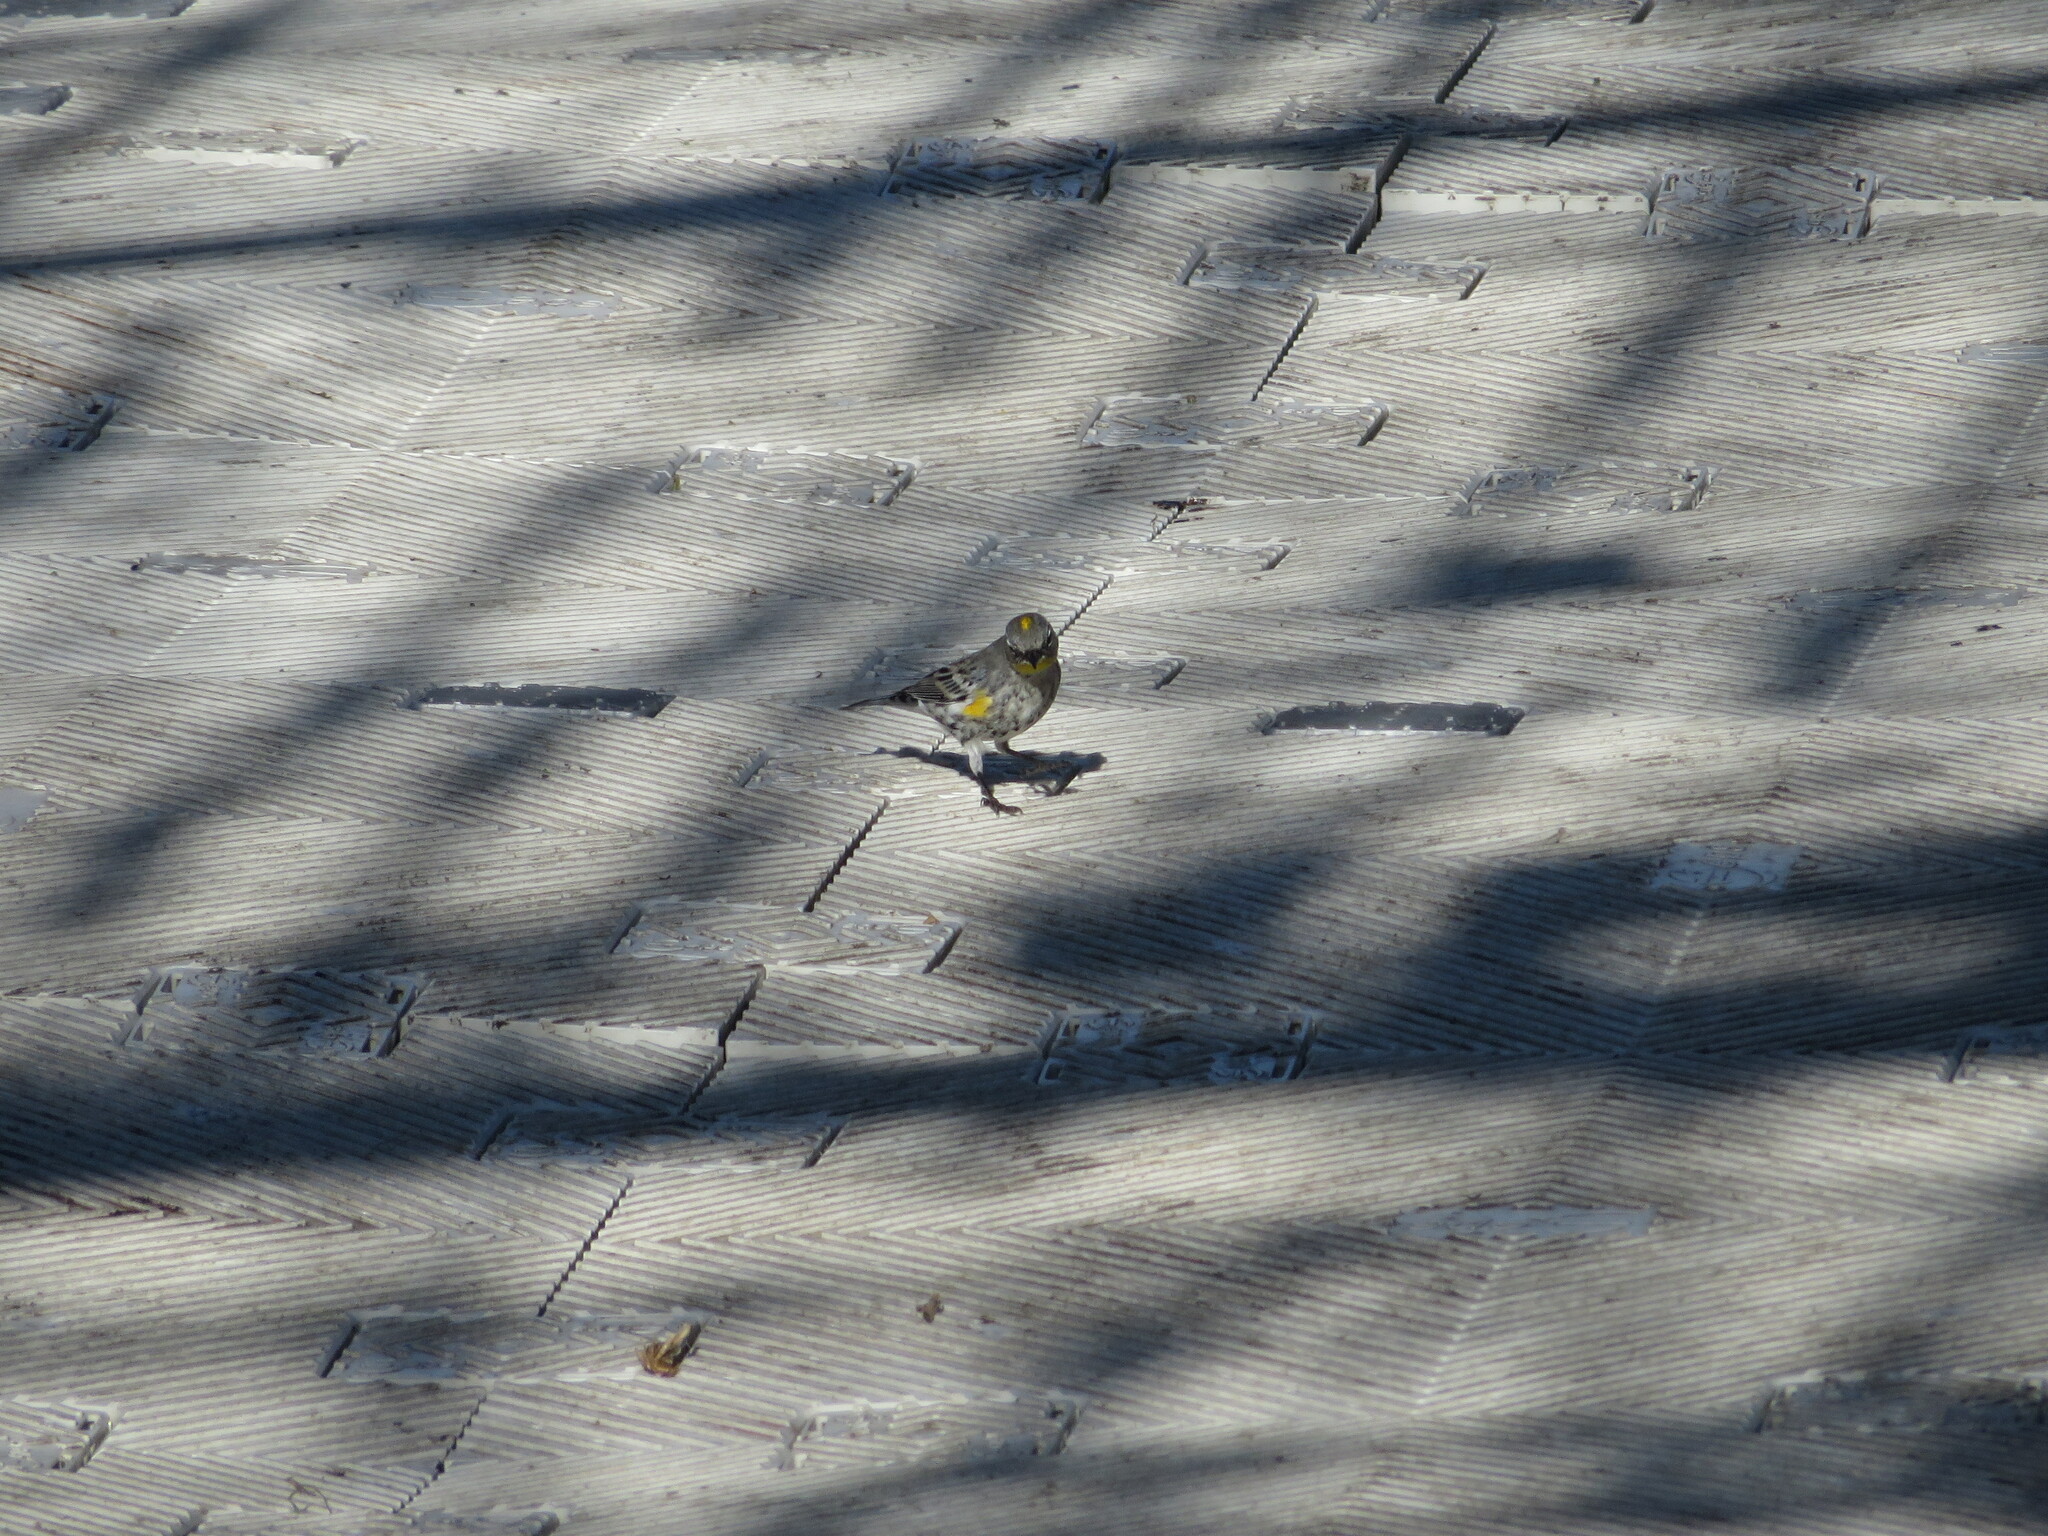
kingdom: Animalia
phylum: Chordata
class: Aves
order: Passeriformes
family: Parulidae
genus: Setophaga
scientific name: Setophaga auduboni
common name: Audubon's warbler
